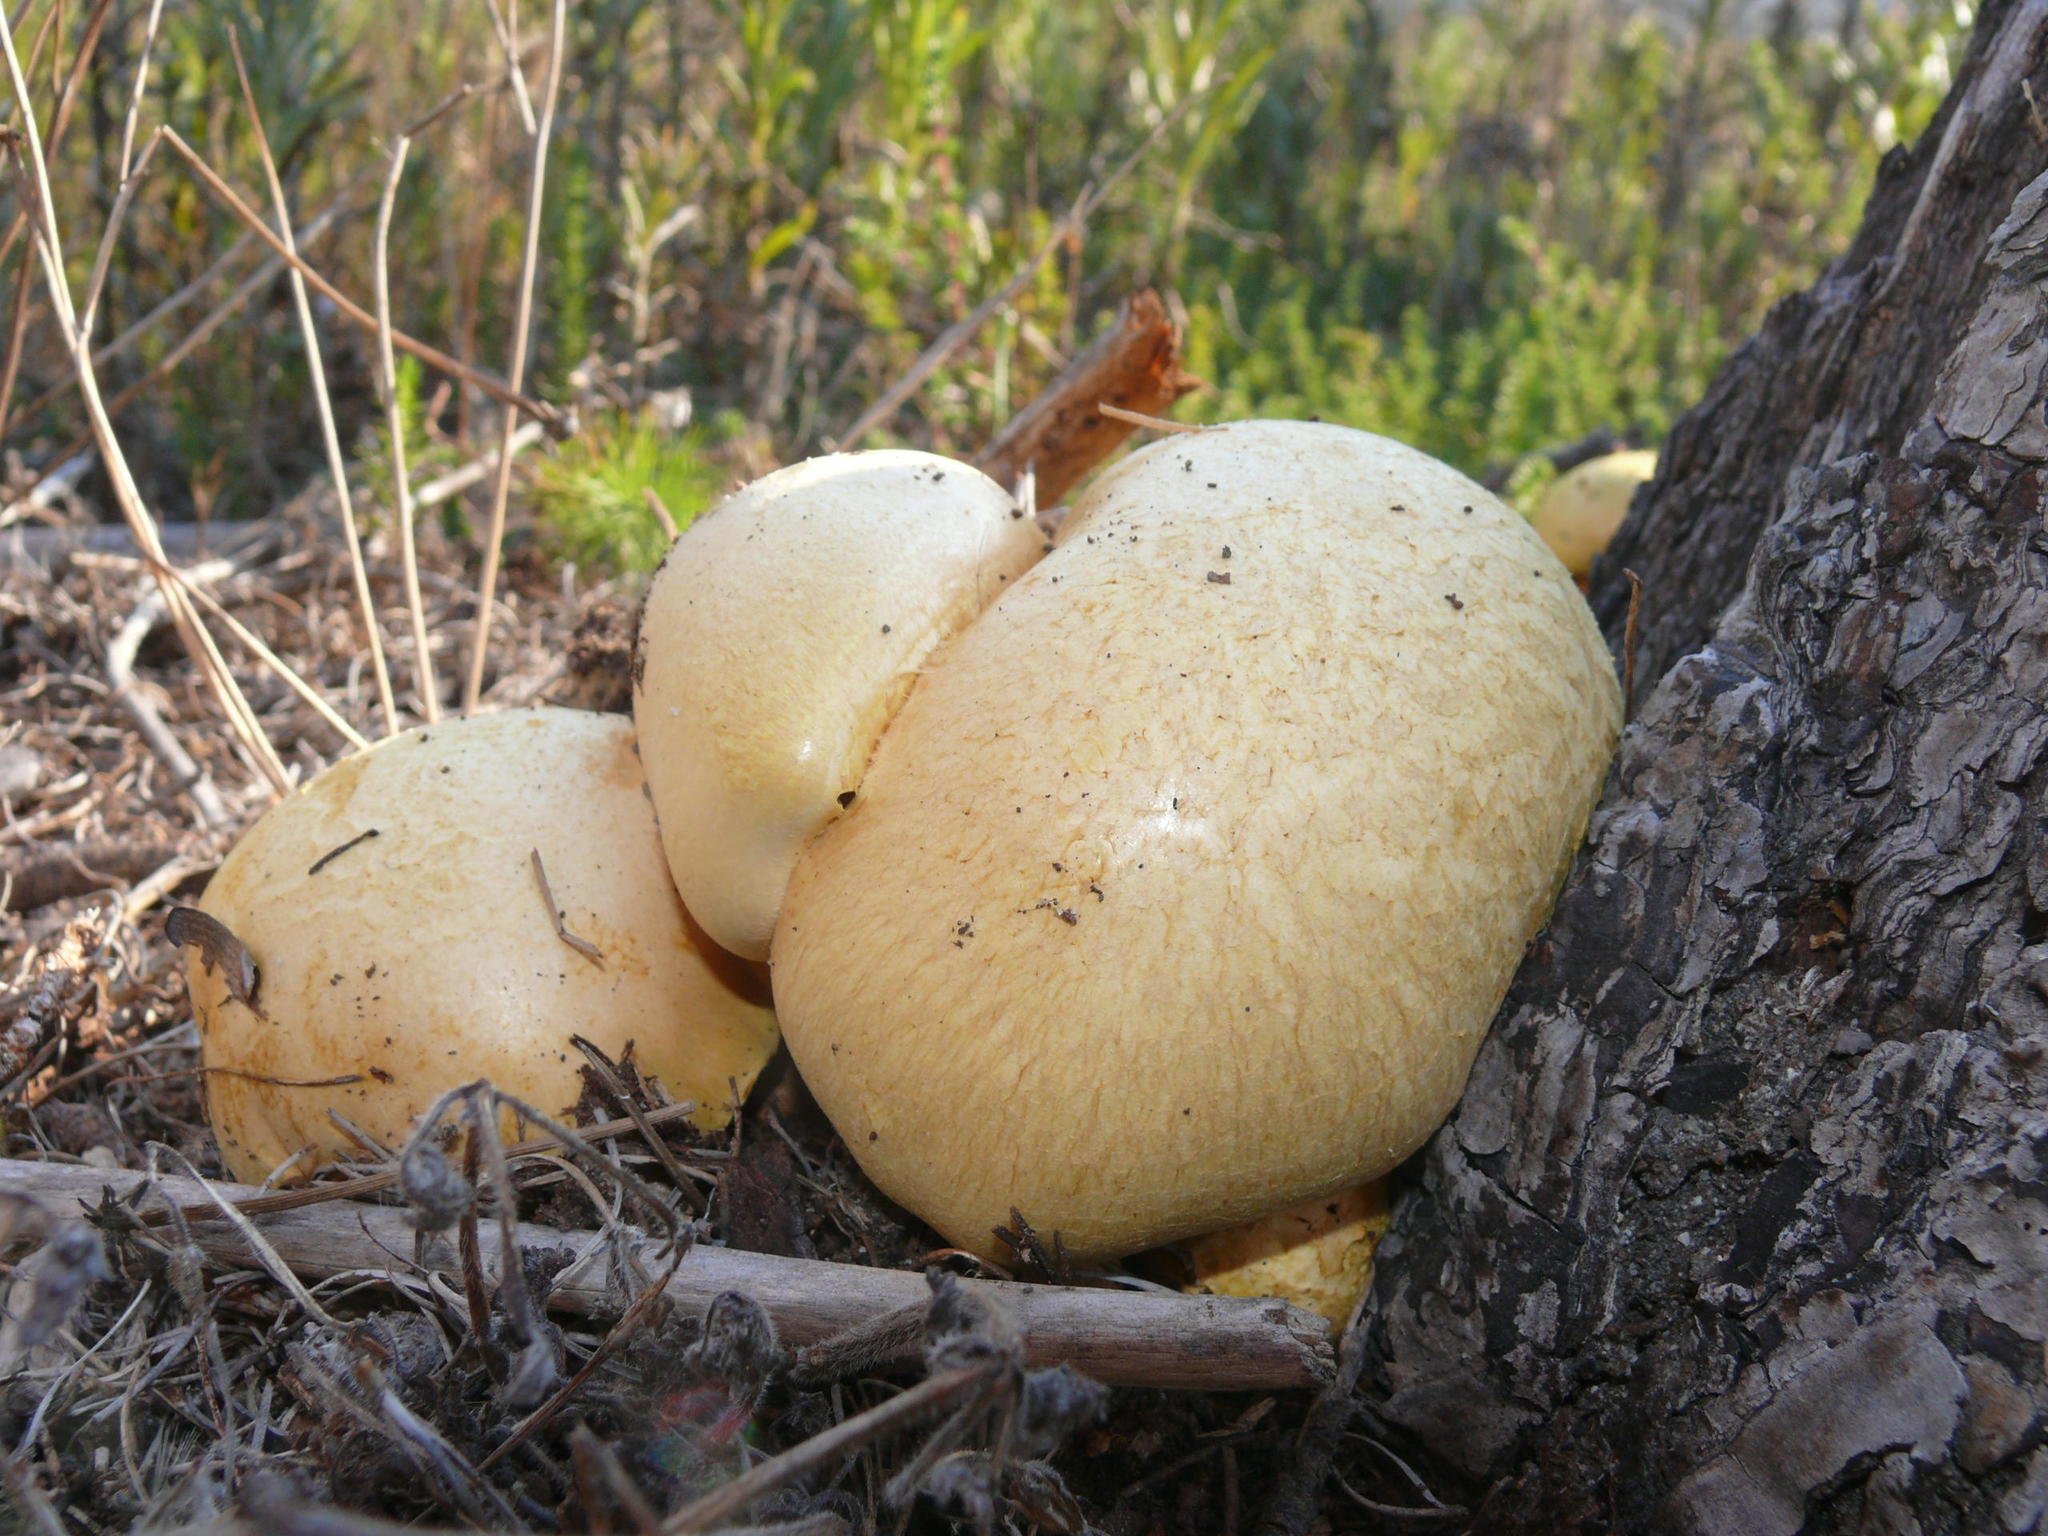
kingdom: Fungi
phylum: Basidiomycota
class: Agaricomycetes
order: Boletales
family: Boletaceae
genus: Boletus
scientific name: Boletus edulis
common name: Cep
